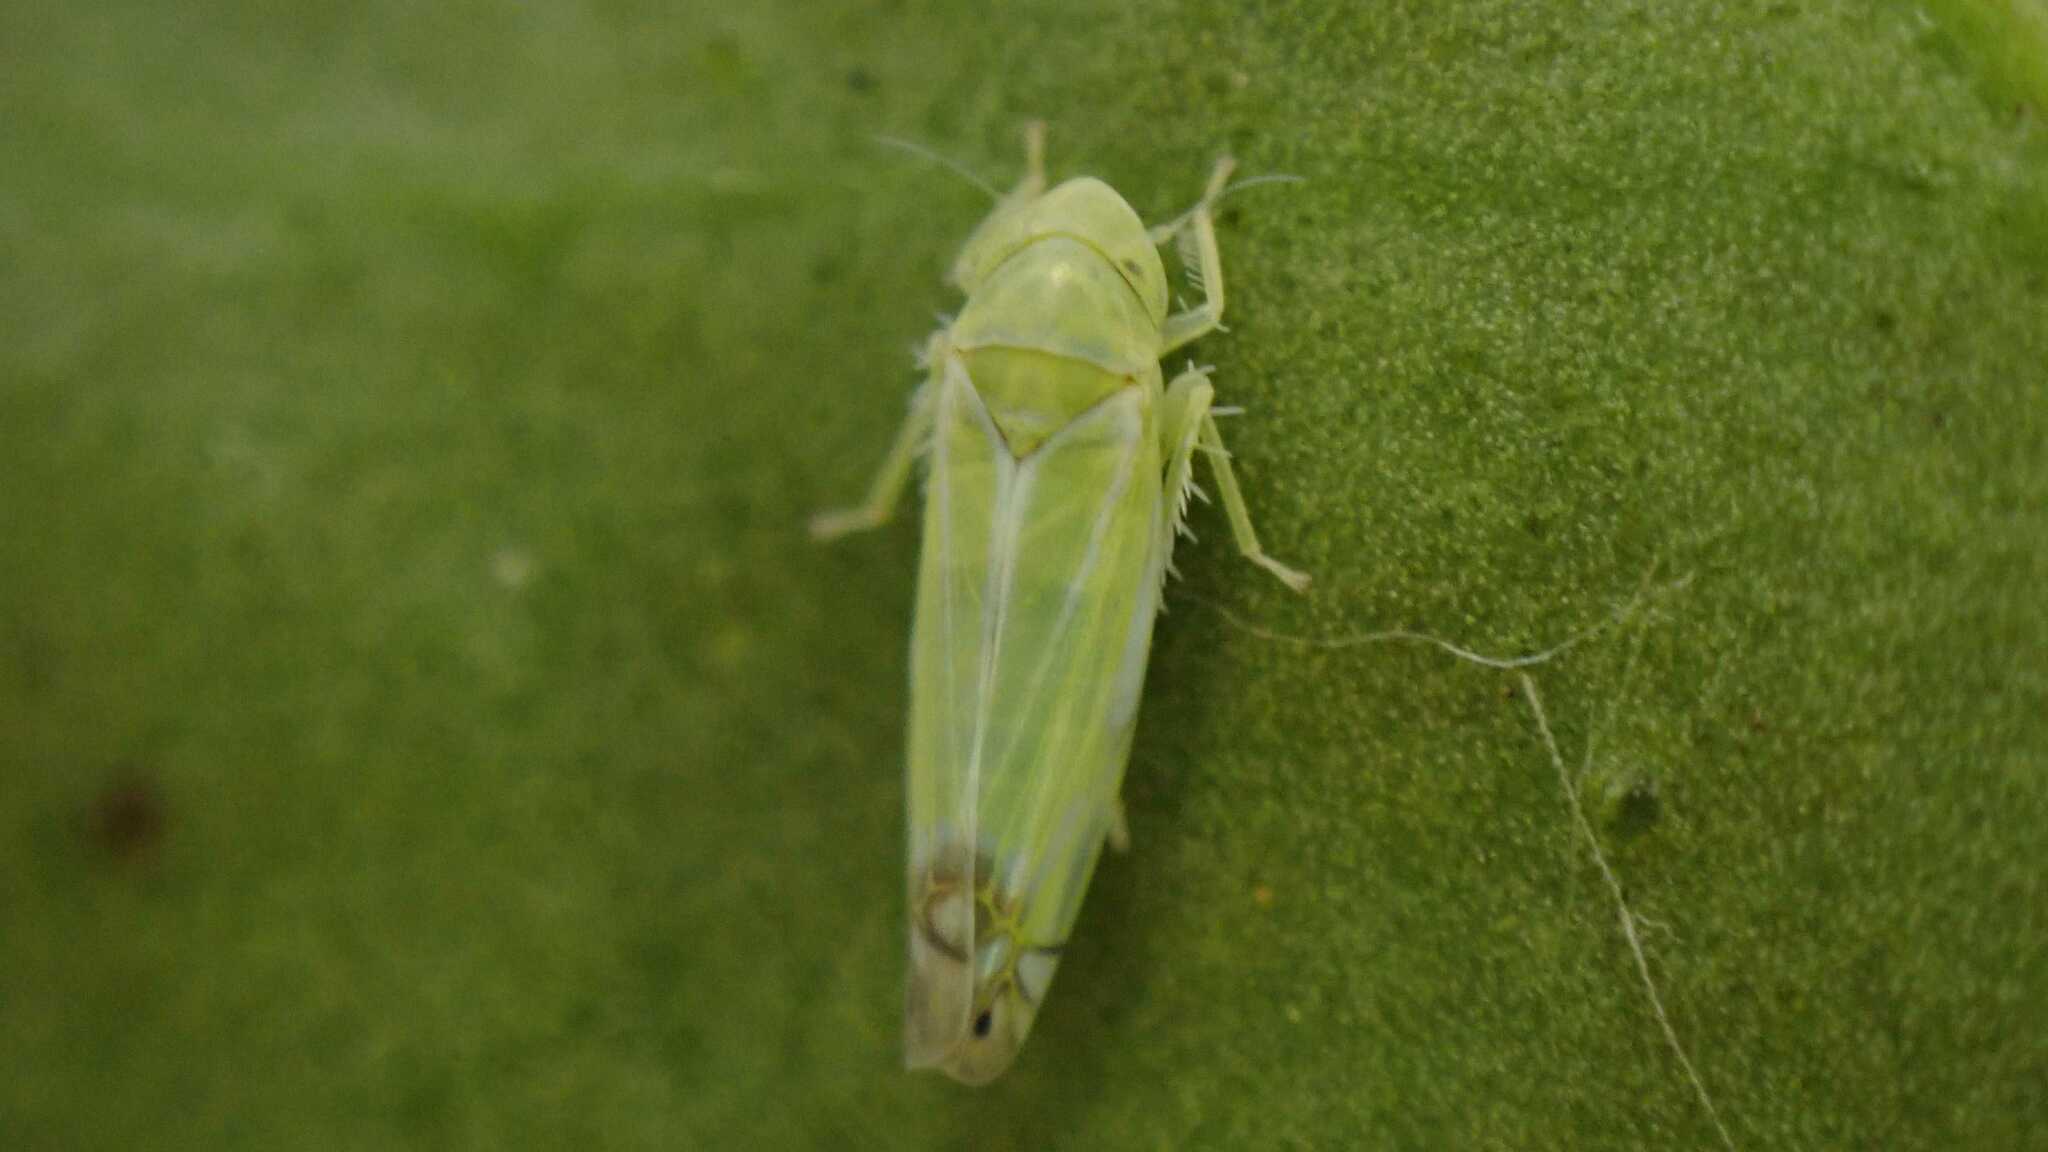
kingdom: Animalia
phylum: Arthropoda
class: Insecta
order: Hemiptera
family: Cicadellidae
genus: Zyginella
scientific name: Zyginella pulchra
